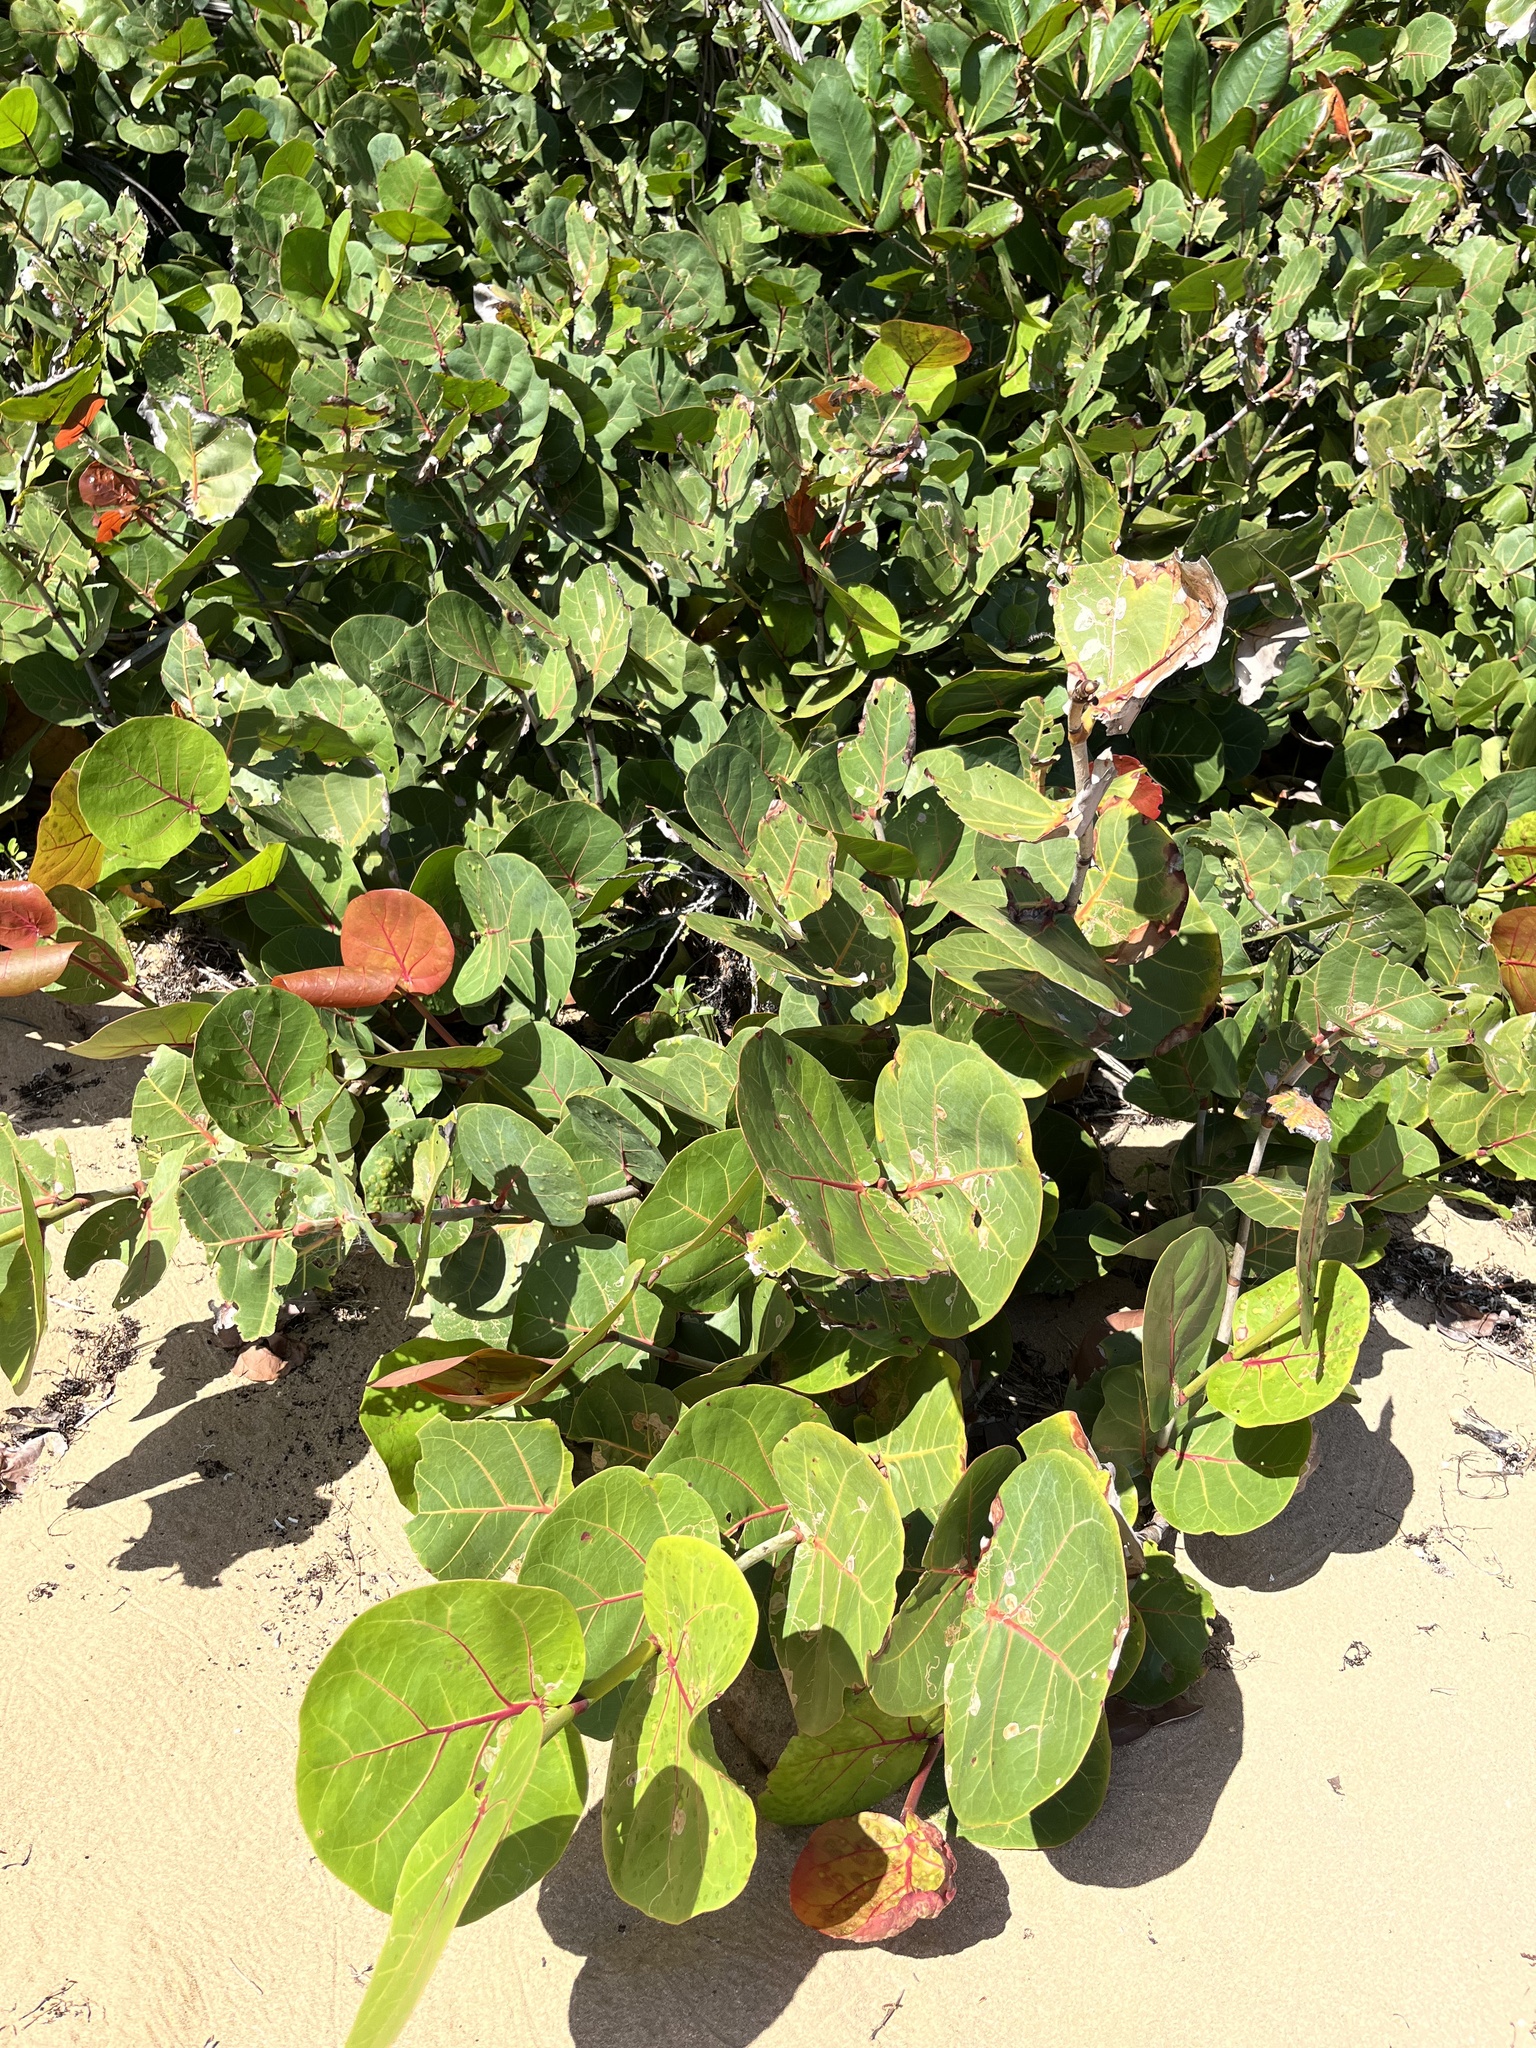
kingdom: Plantae
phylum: Tracheophyta
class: Magnoliopsida
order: Caryophyllales
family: Polygonaceae
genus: Coccoloba
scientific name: Coccoloba uvifera
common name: Seagrape
